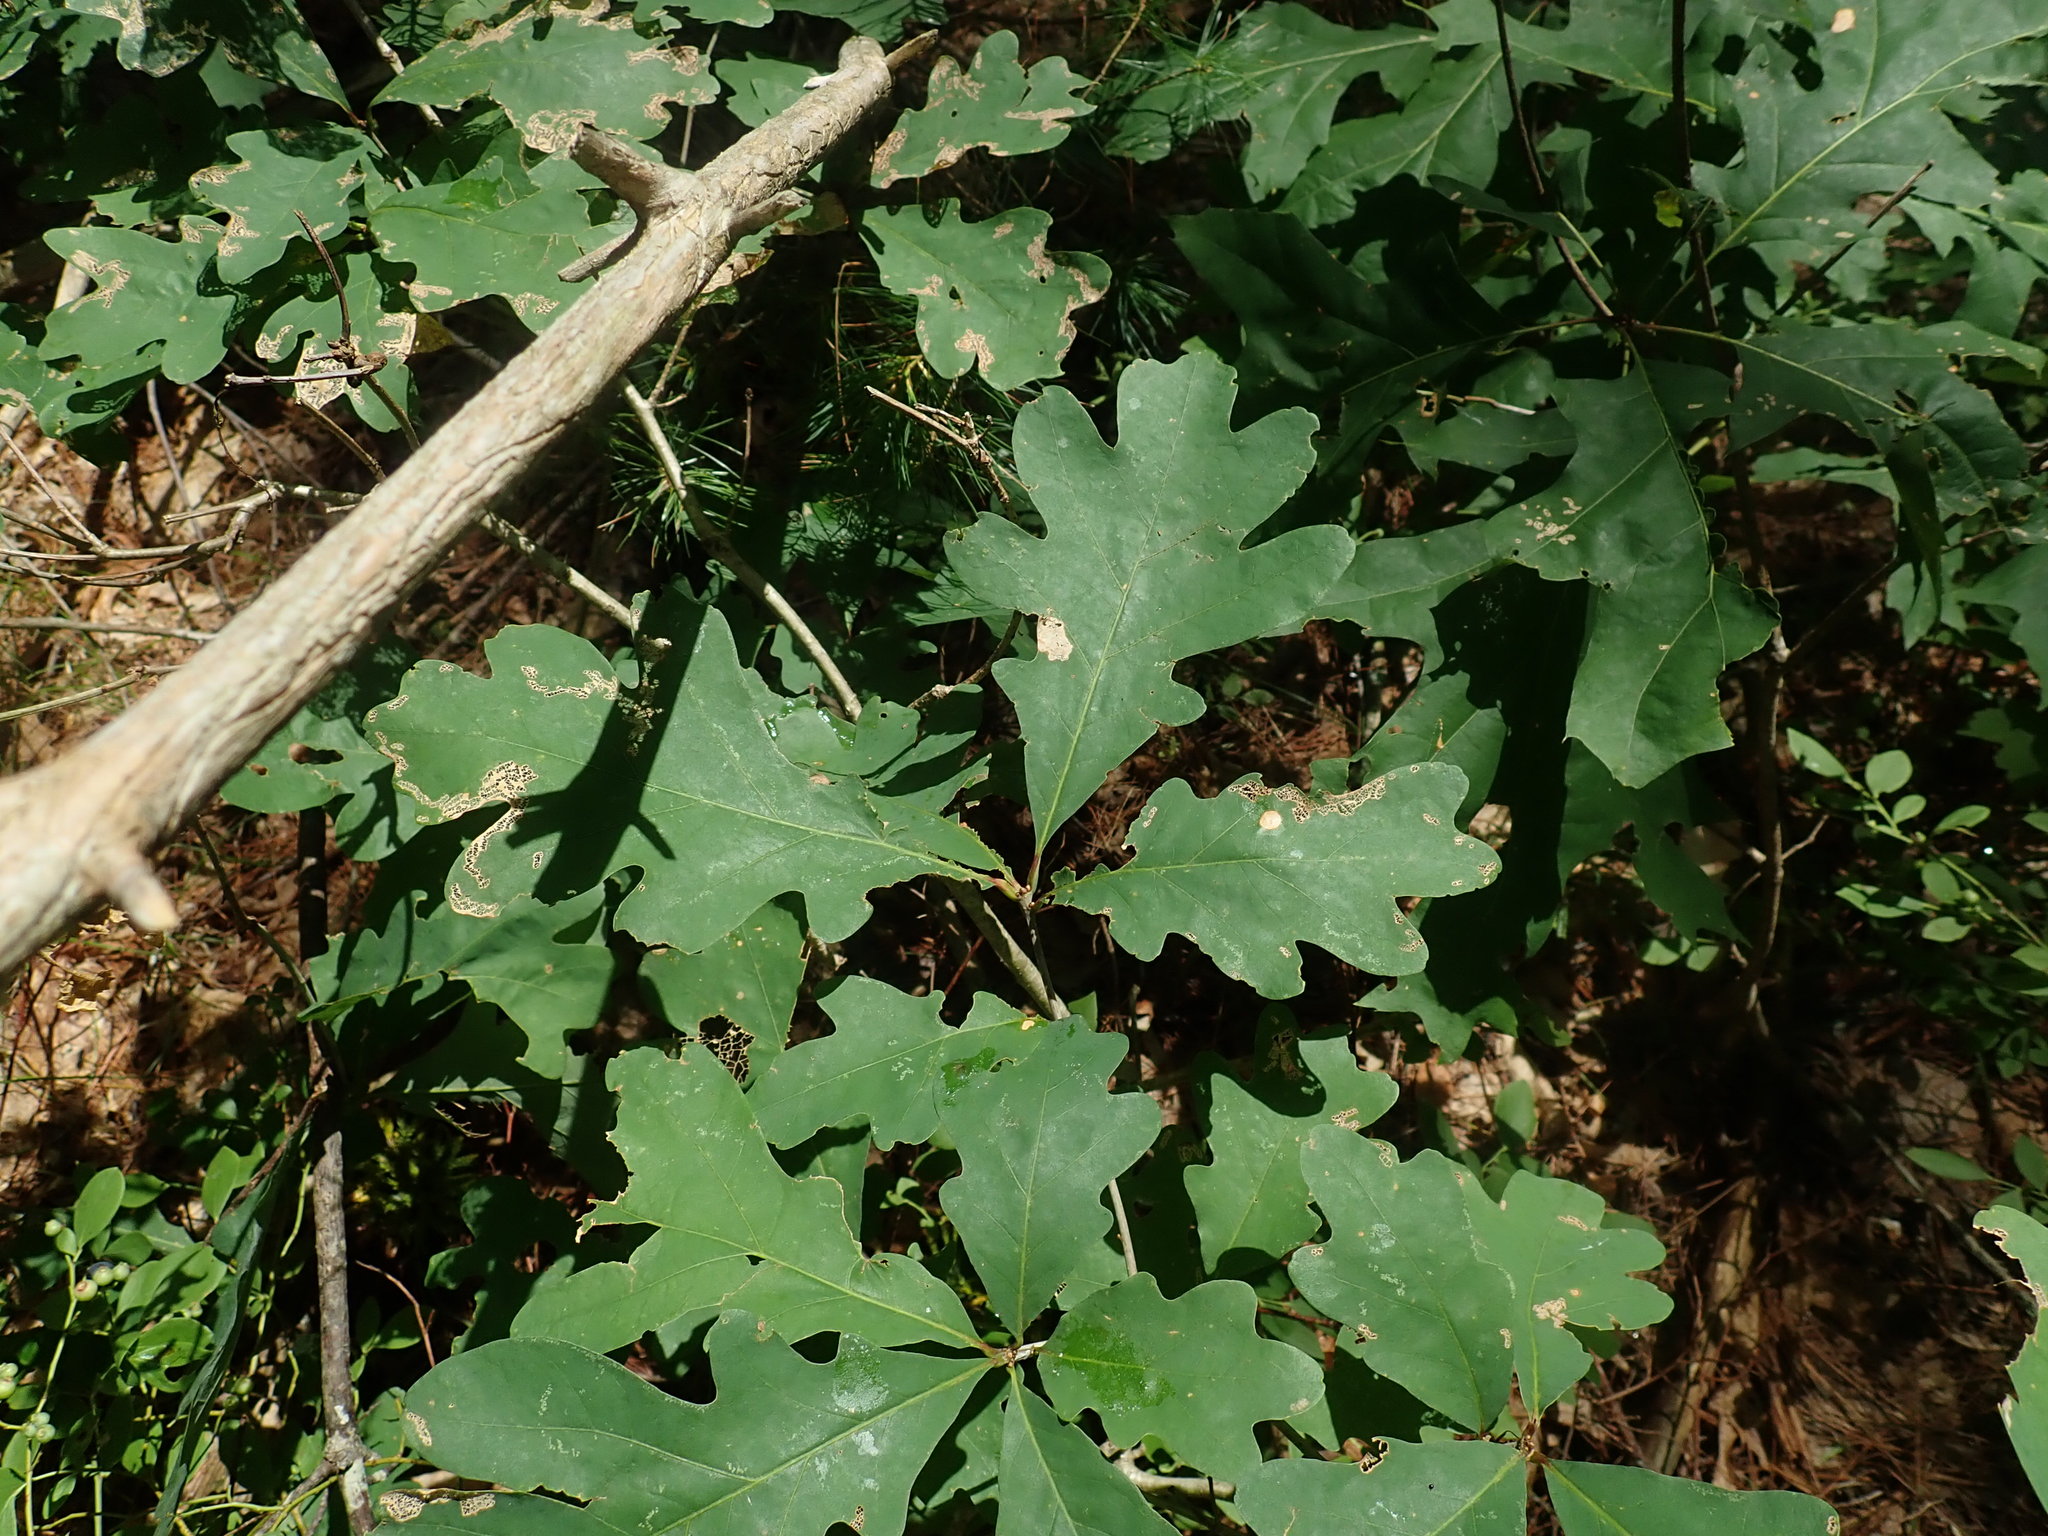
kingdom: Plantae
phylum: Tracheophyta
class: Magnoliopsida
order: Fagales
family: Fagaceae
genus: Quercus
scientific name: Quercus alba
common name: White oak
